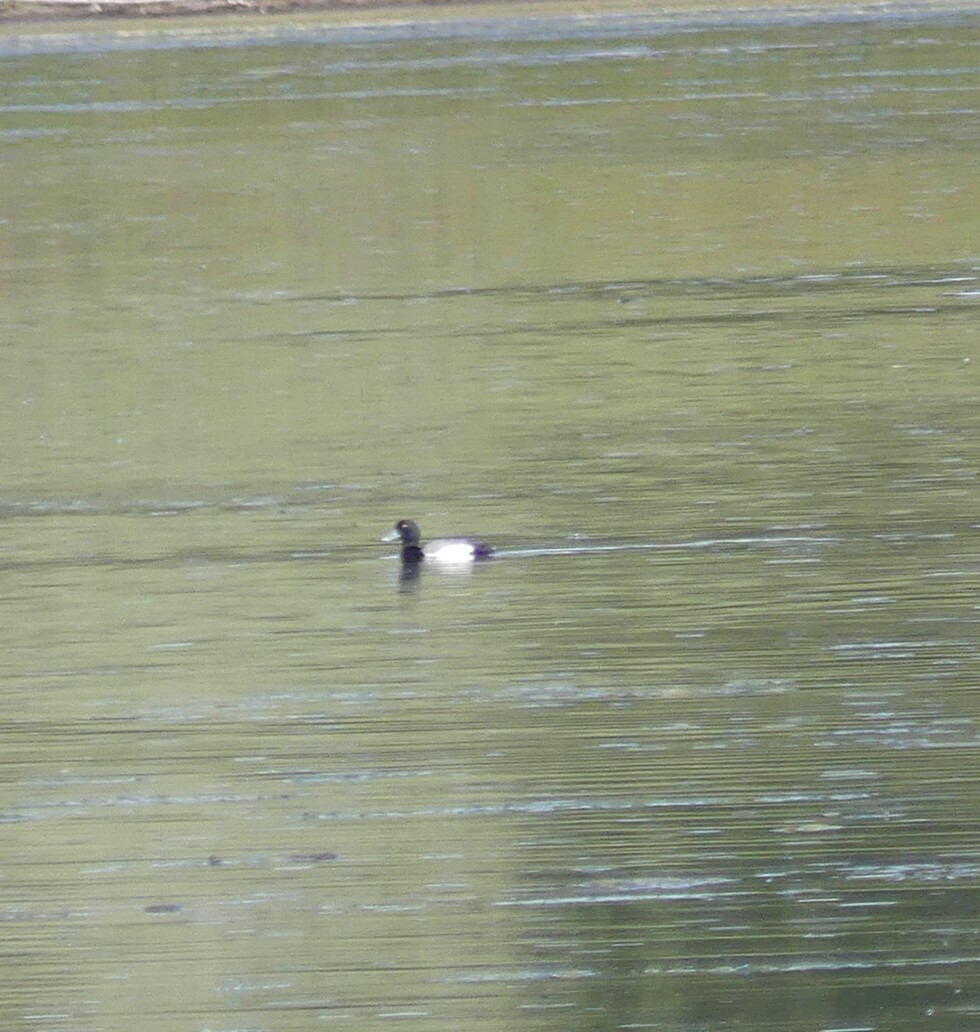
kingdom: Animalia
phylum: Chordata
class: Aves
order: Anseriformes
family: Anatidae
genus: Aythya
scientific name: Aythya marila
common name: Greater scaup
